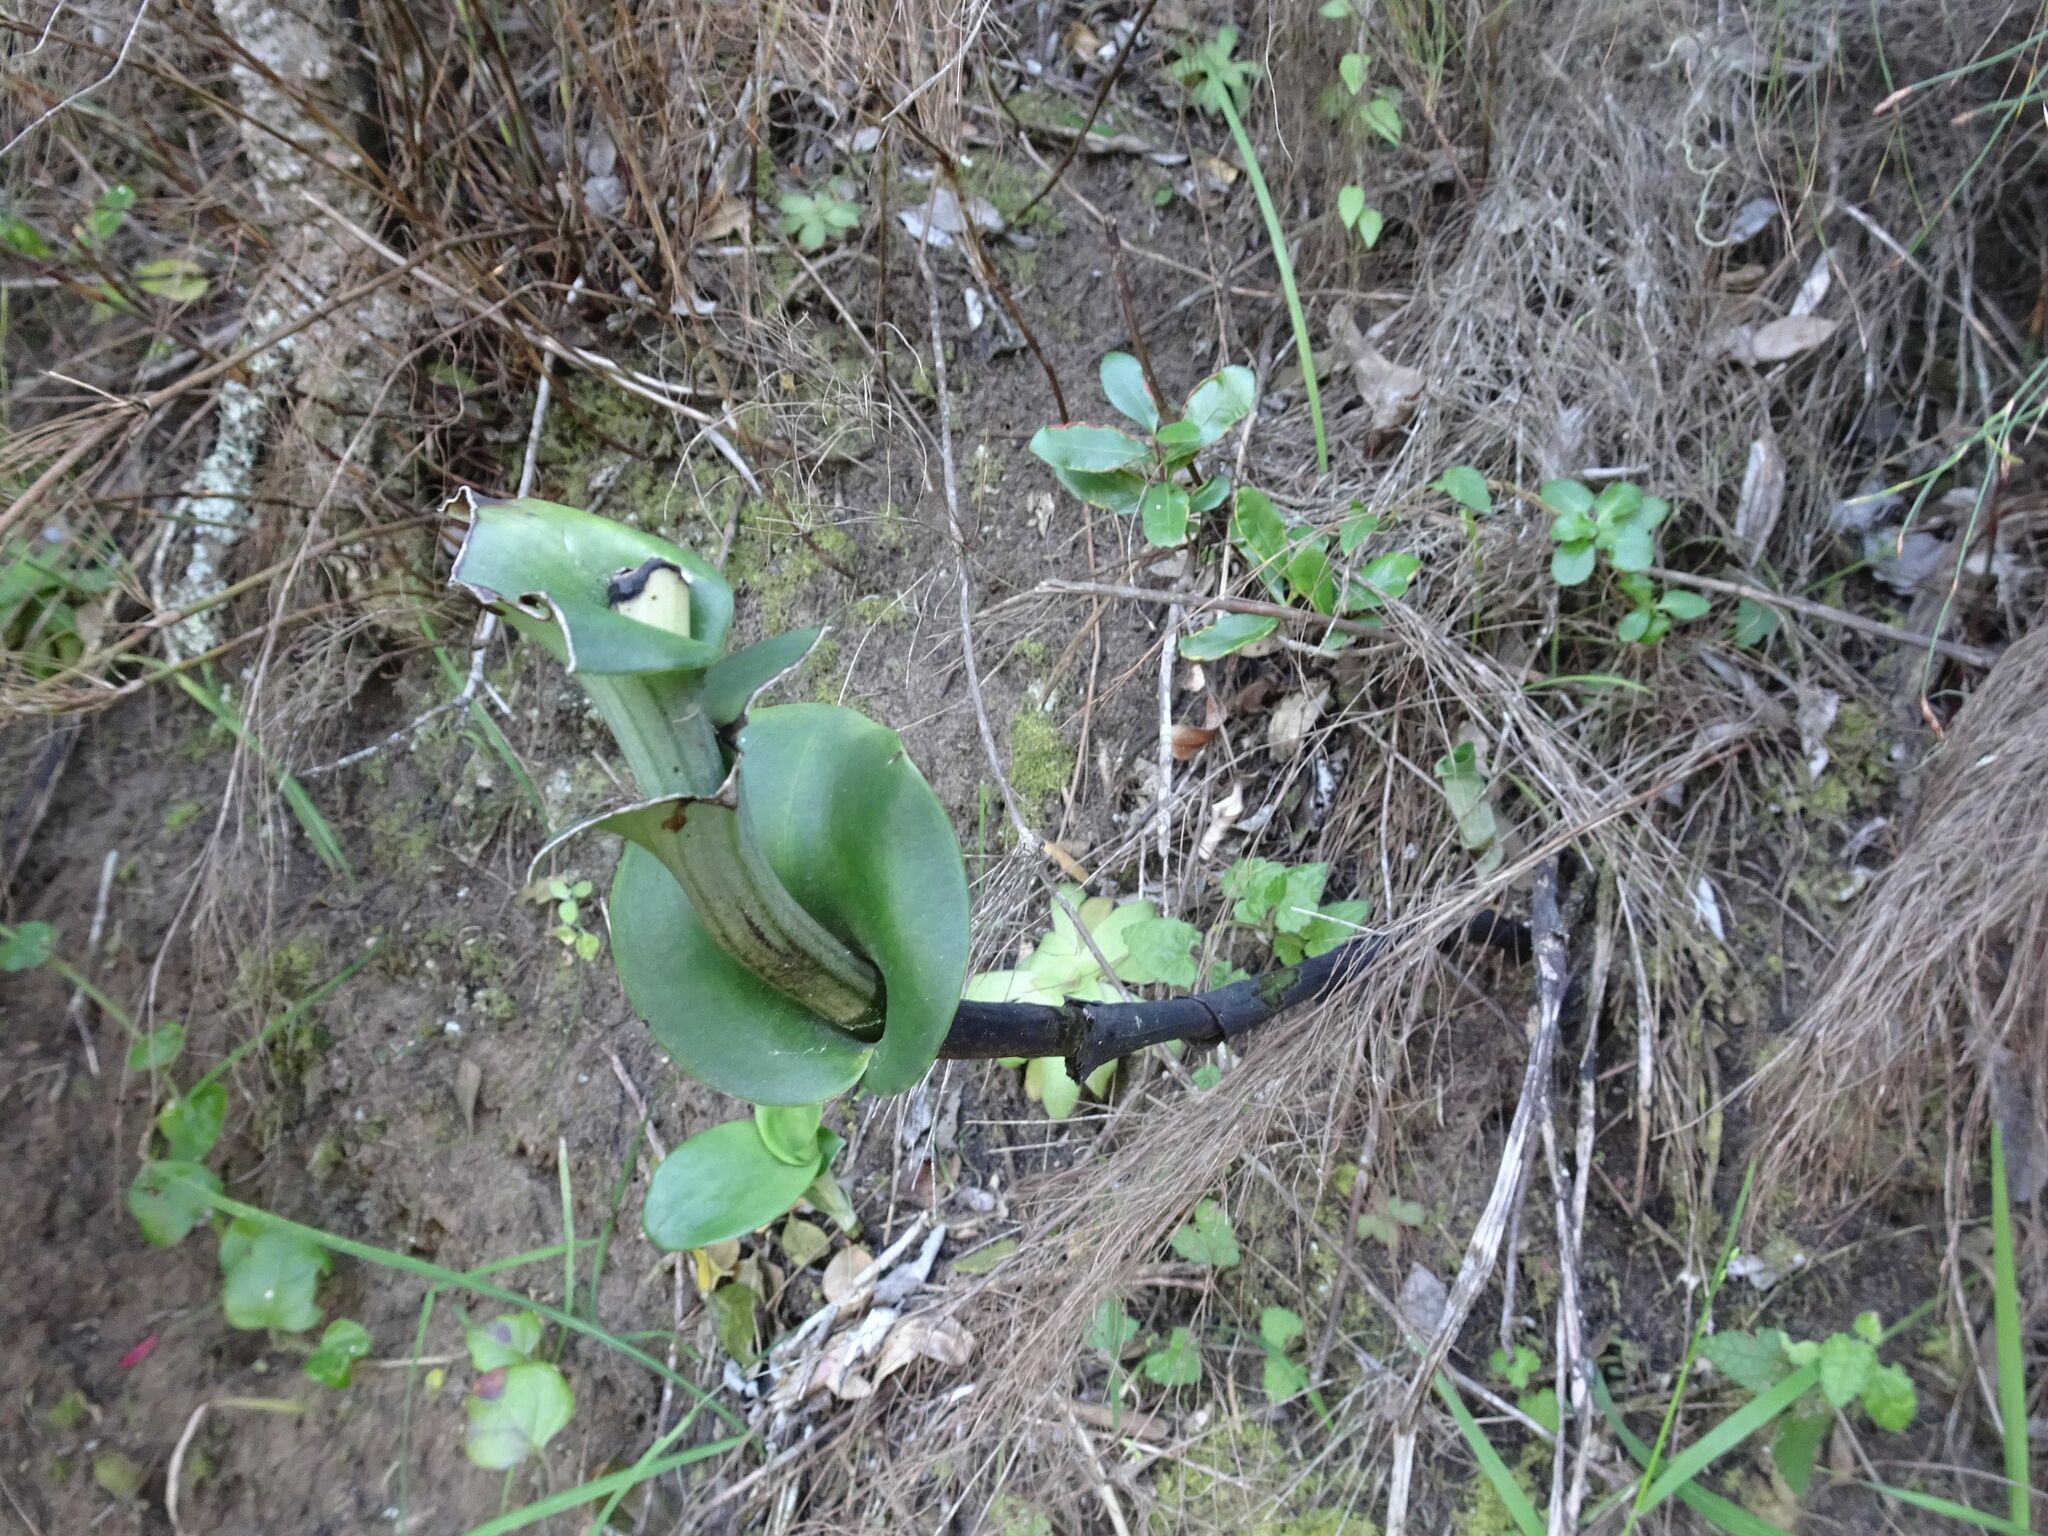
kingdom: Plantae
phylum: Tracheophyta
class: Liliopsida
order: Asparagales
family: Orchidaceae
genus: Bonatea
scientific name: Bonatea speciosa
